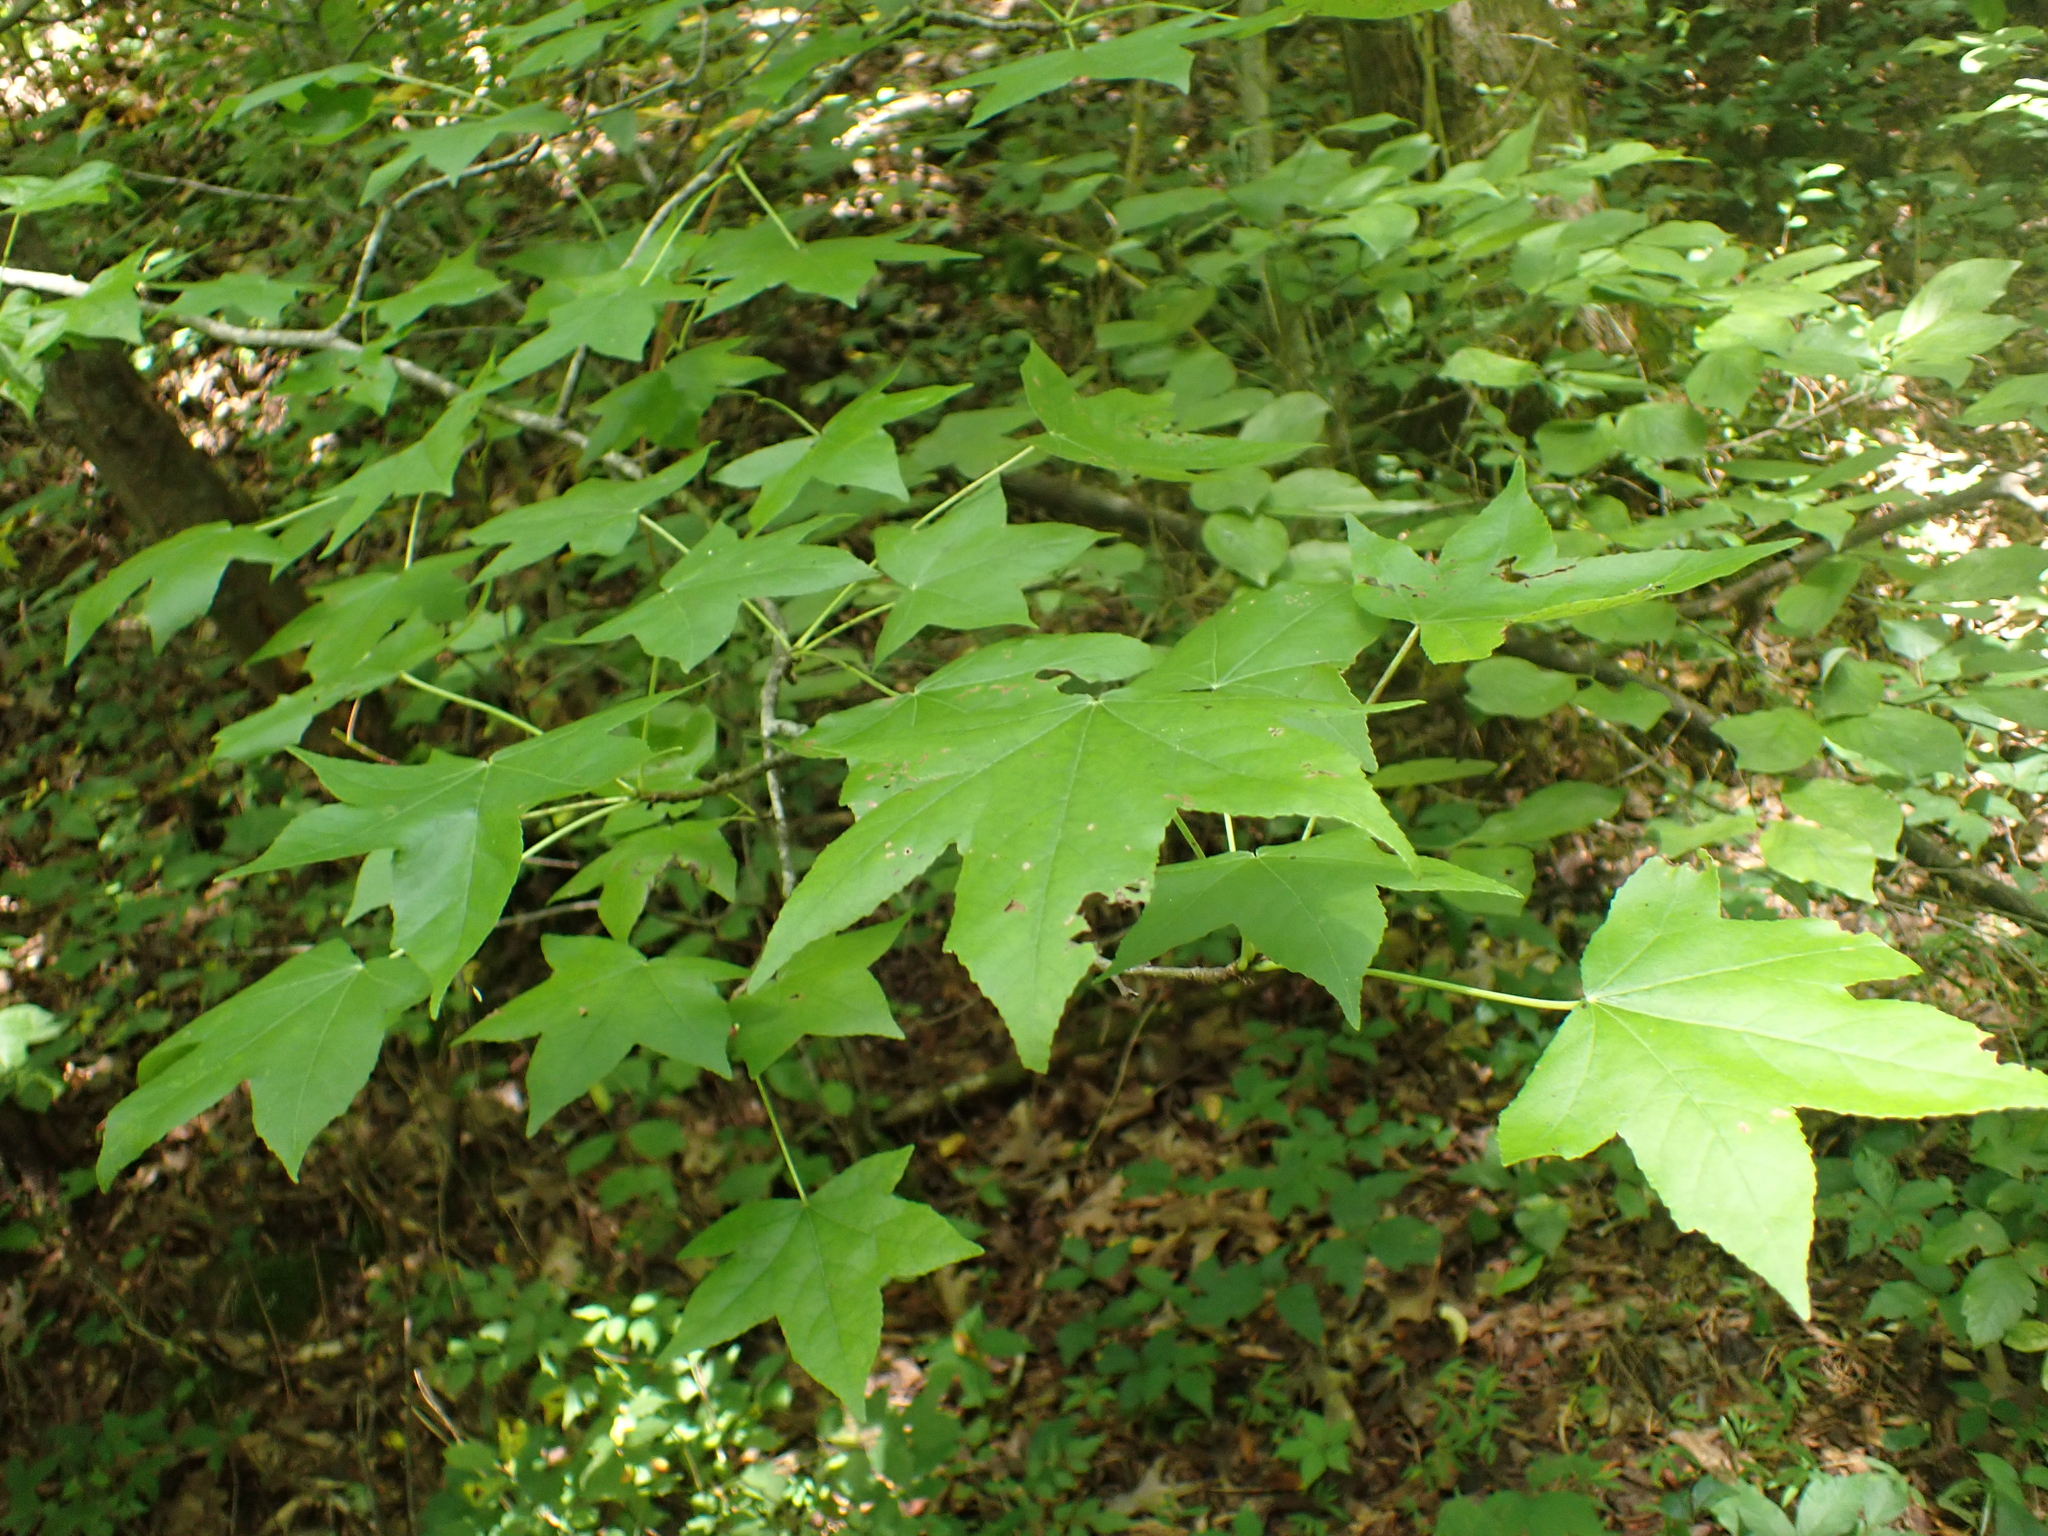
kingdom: Plantae
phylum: Tracheophyta
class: Magnoliopsida
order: Saxifragales
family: Altingiaceae
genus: Liquidambar
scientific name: Liquidambar styraciflua
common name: Sweet gum
